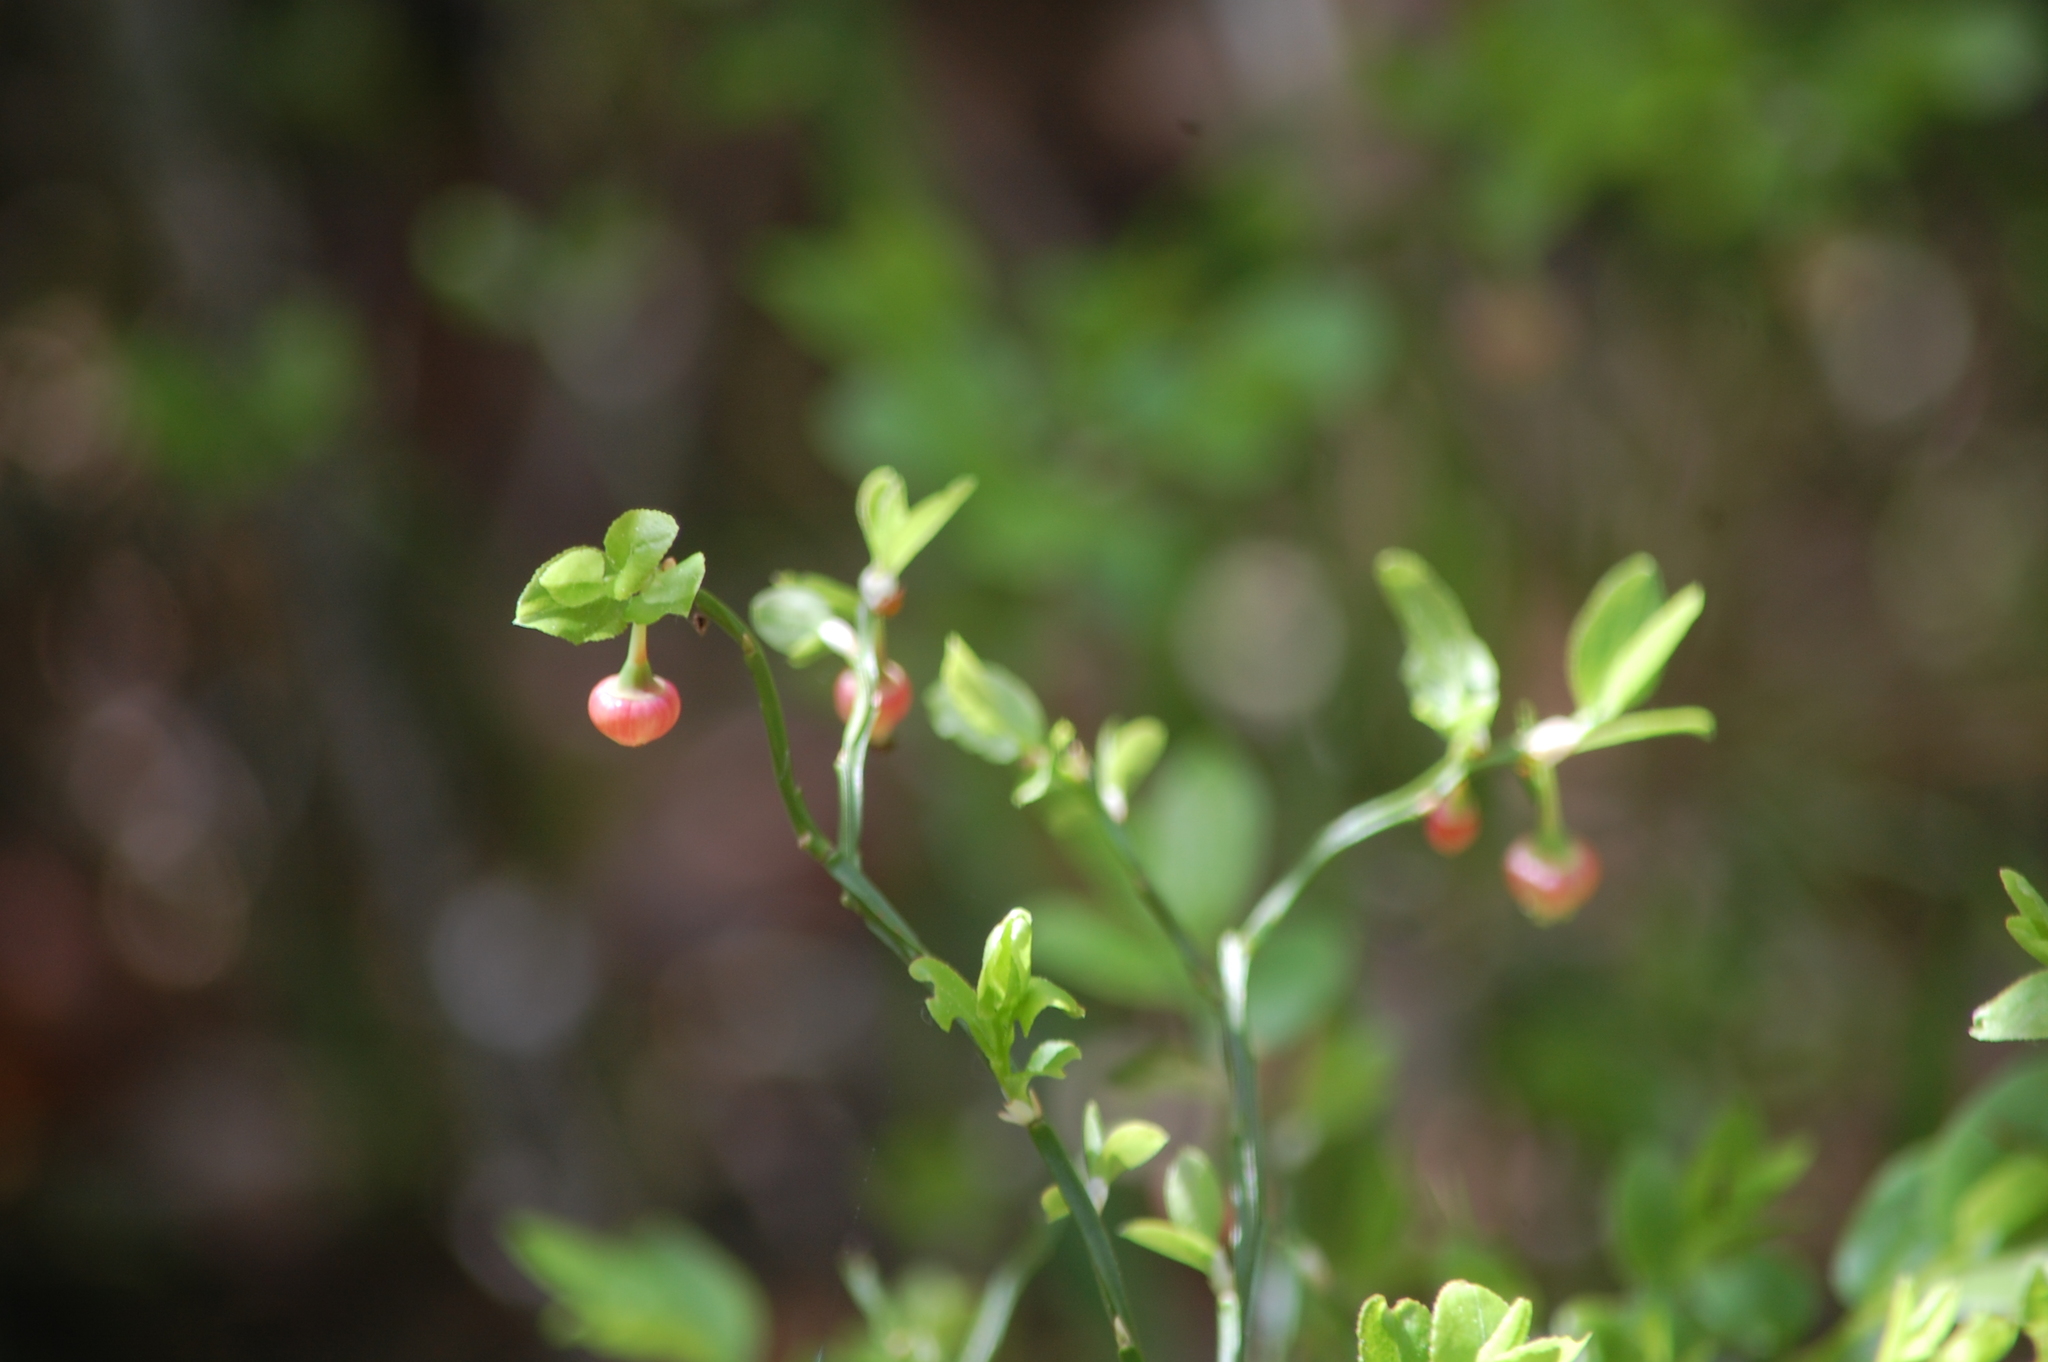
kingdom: Plantae
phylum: Tracheophyta
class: Magnoliopsida
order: Ericales
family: Ericaceae
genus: Vaccinium
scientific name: Vaccinium myrtillus
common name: Bilberry
